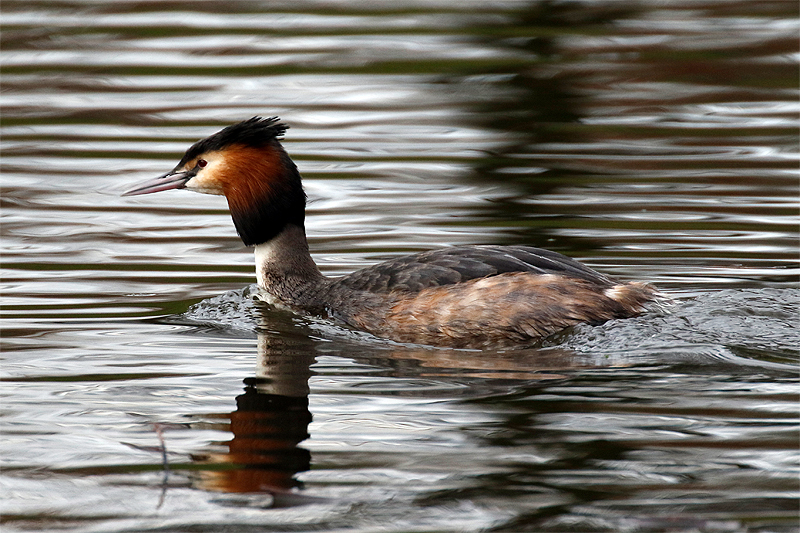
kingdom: Animalia
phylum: Chordata
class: Aves
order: Podicipediformes
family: Podicipedidae
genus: Podiceps
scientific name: Podiceps cristatus
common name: Great crested grebe
